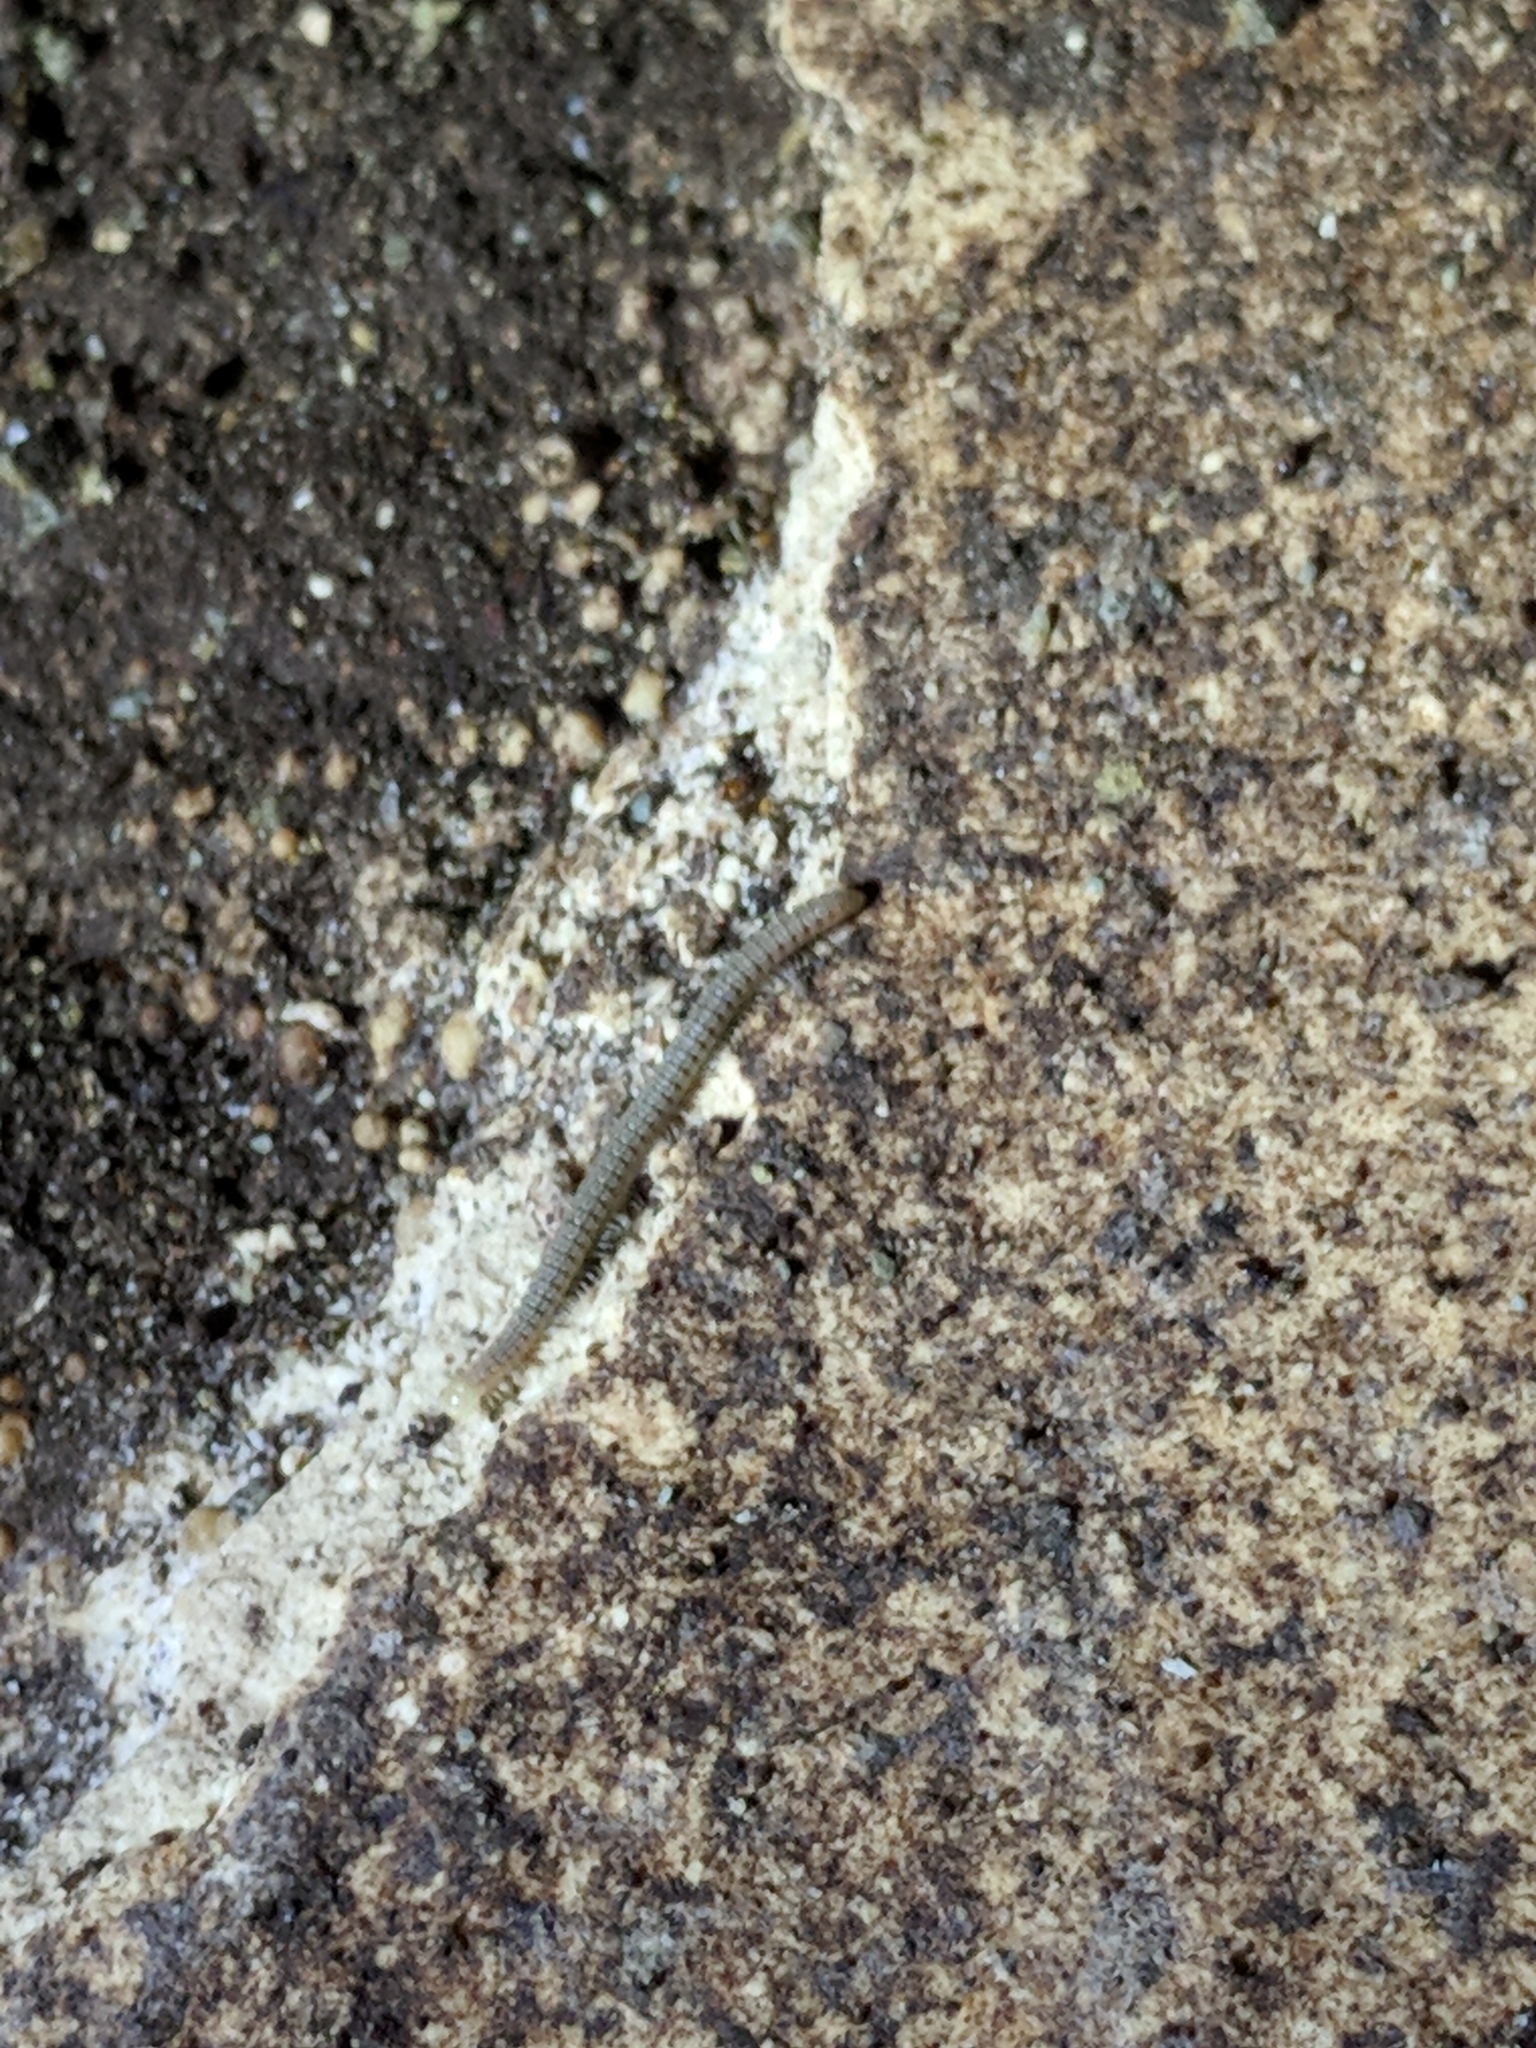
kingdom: Animalia
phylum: Arthropoda
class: Diplopoda
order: Spirostreptida
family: Cambalidae
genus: Cambala
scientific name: Cambala speobia
